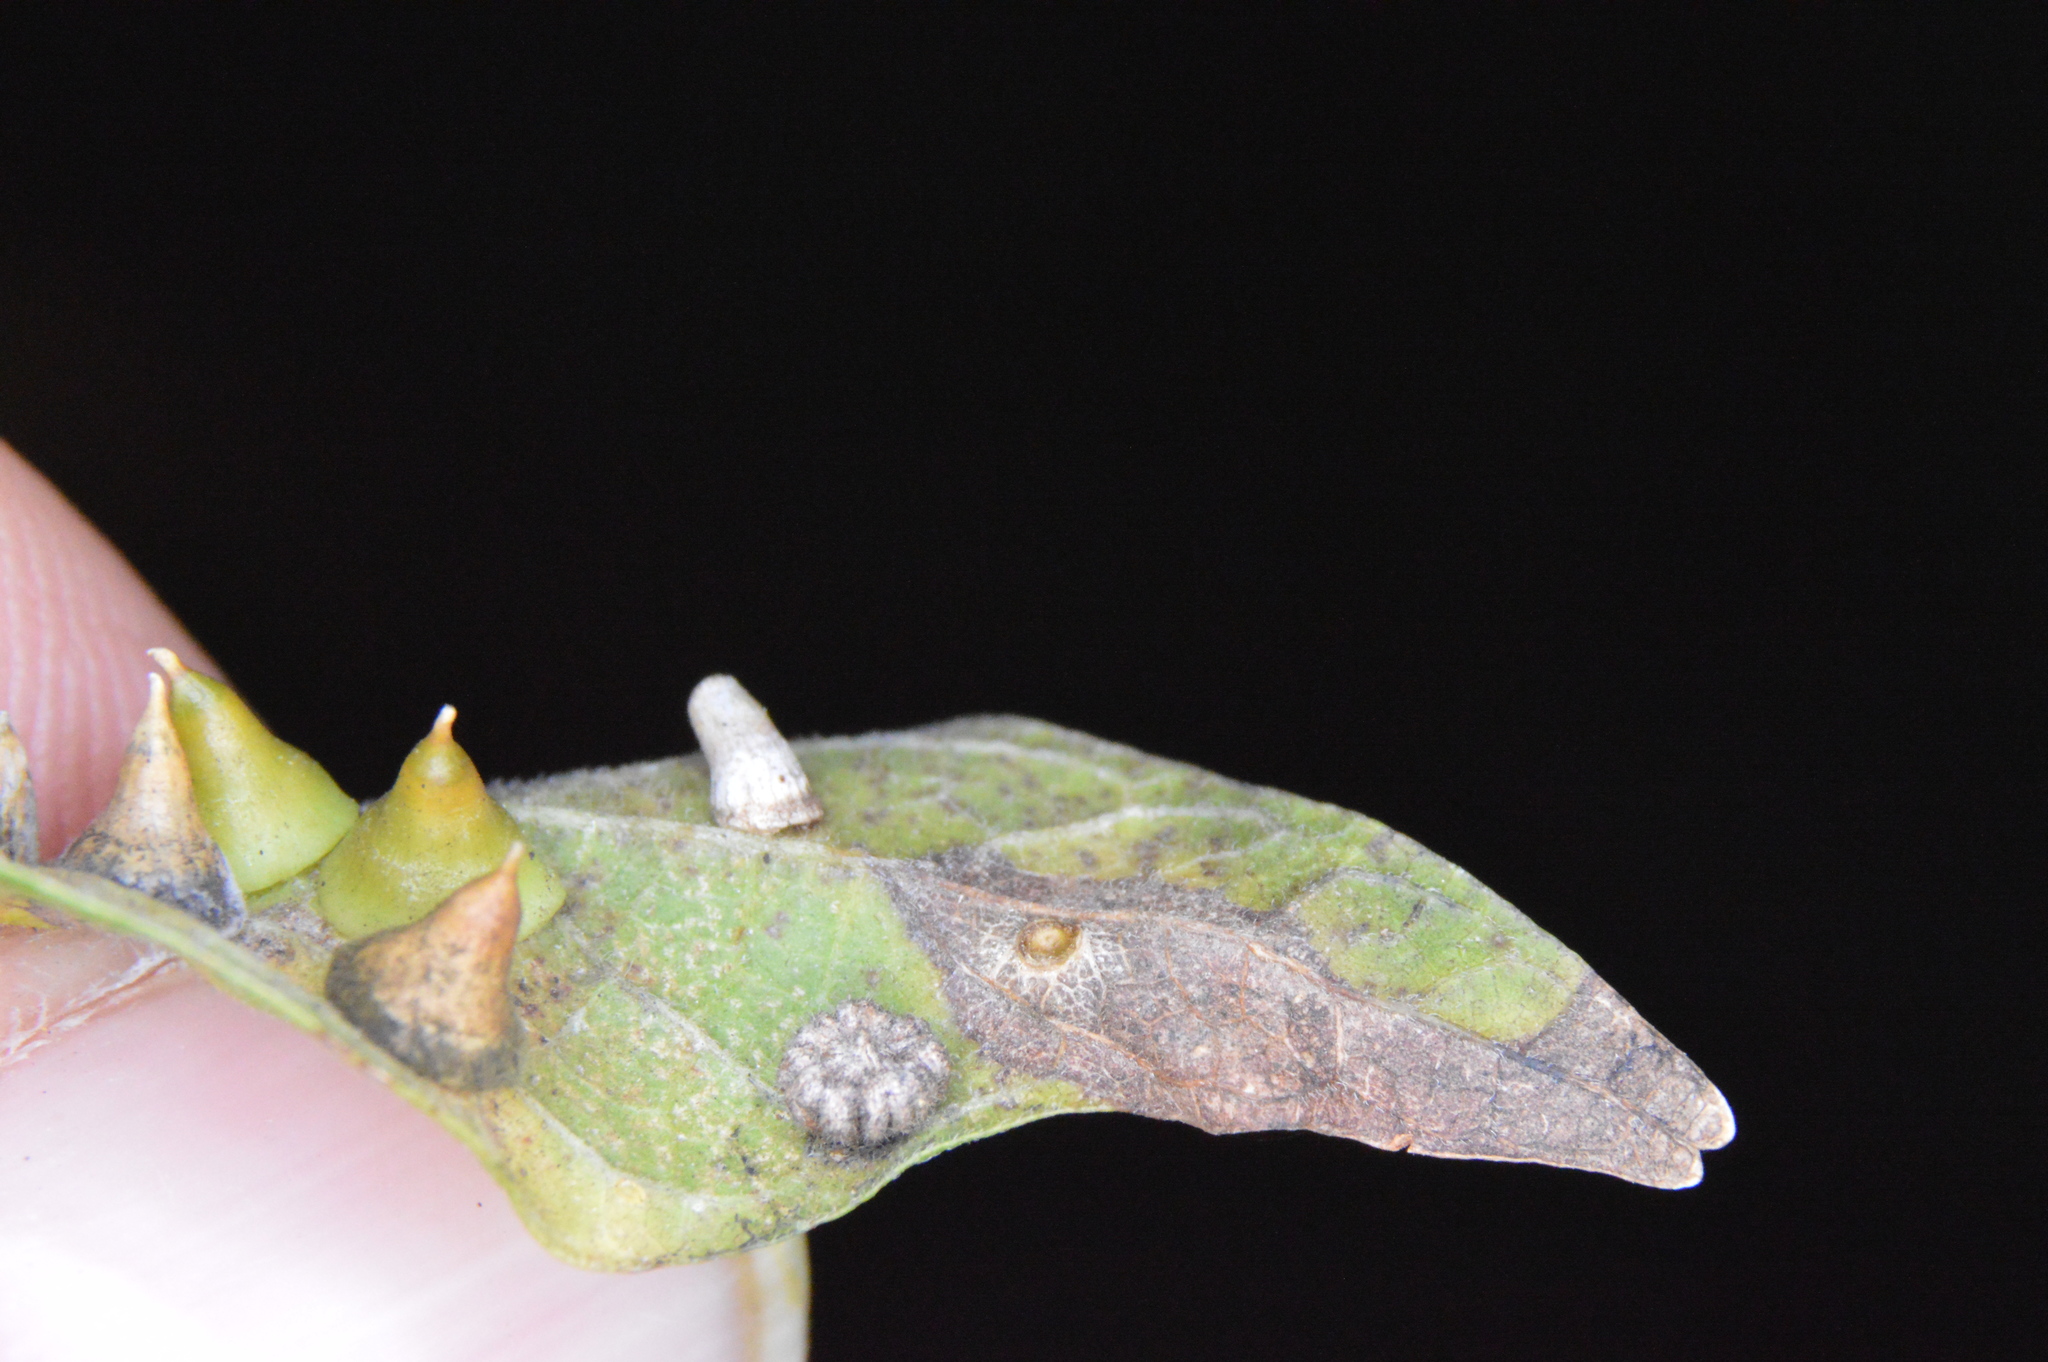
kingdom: Animalia
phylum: Arthropoda
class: Insecta
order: Diptera
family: Cecidomyiidae
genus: Celticecis
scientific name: Celticecis capsularis
